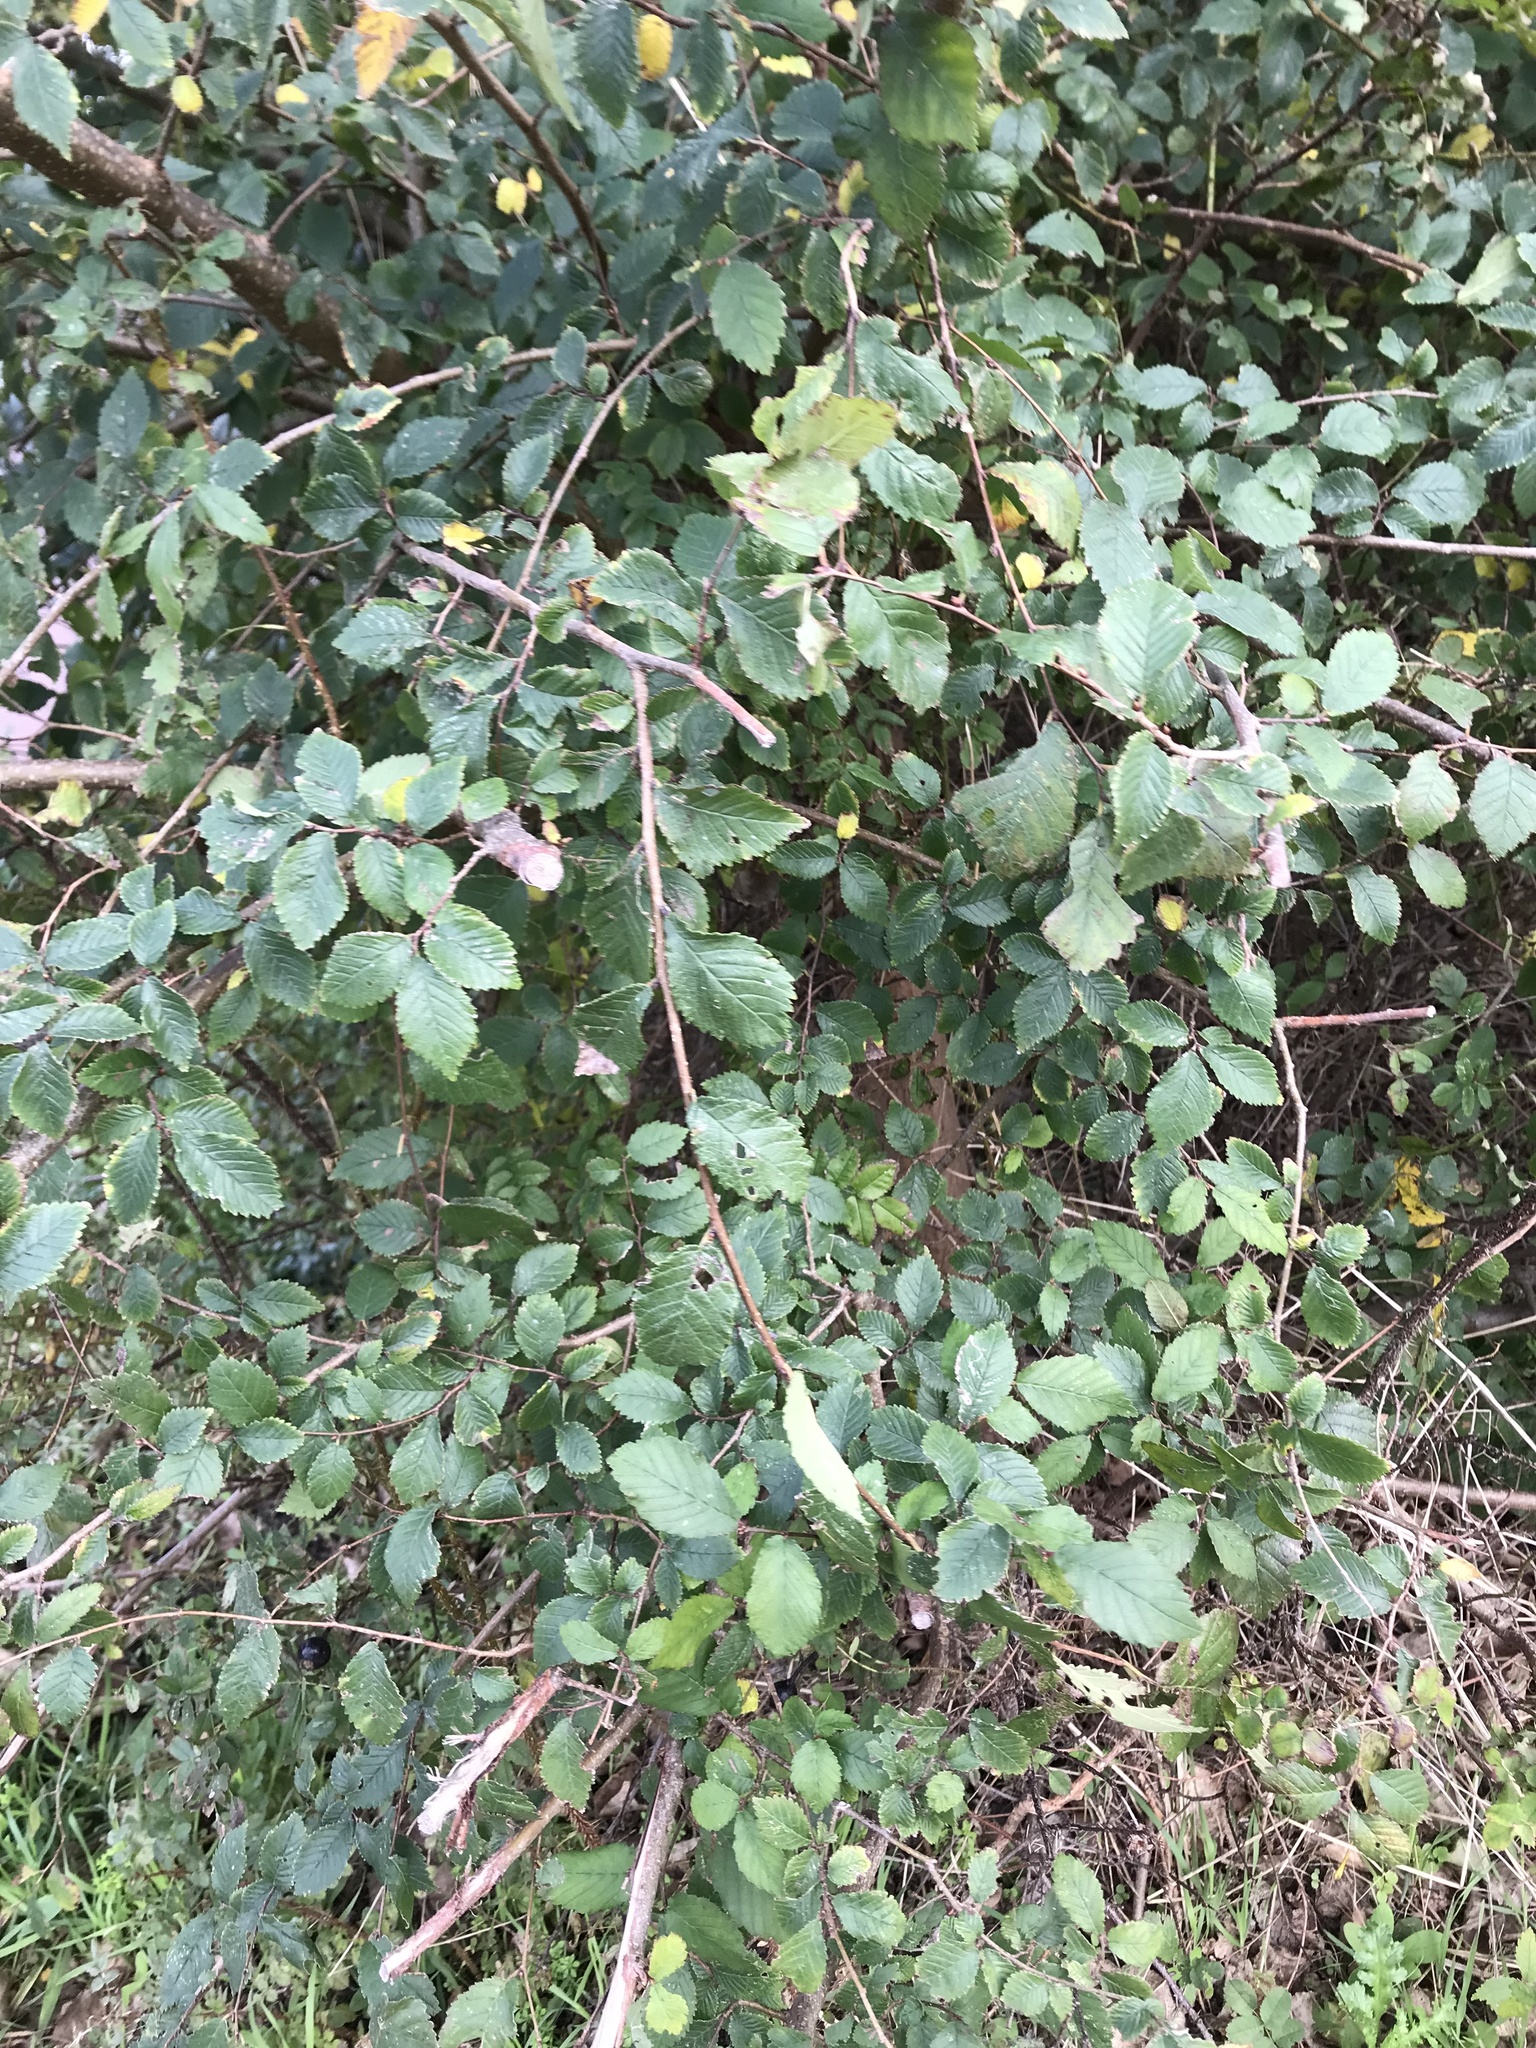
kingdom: Plantae
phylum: Tracheophyta
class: Magnoliopsida
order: Rosales
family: Ulmaceae
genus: Ulmus
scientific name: Ulmus minor
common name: Small-leaved elm
